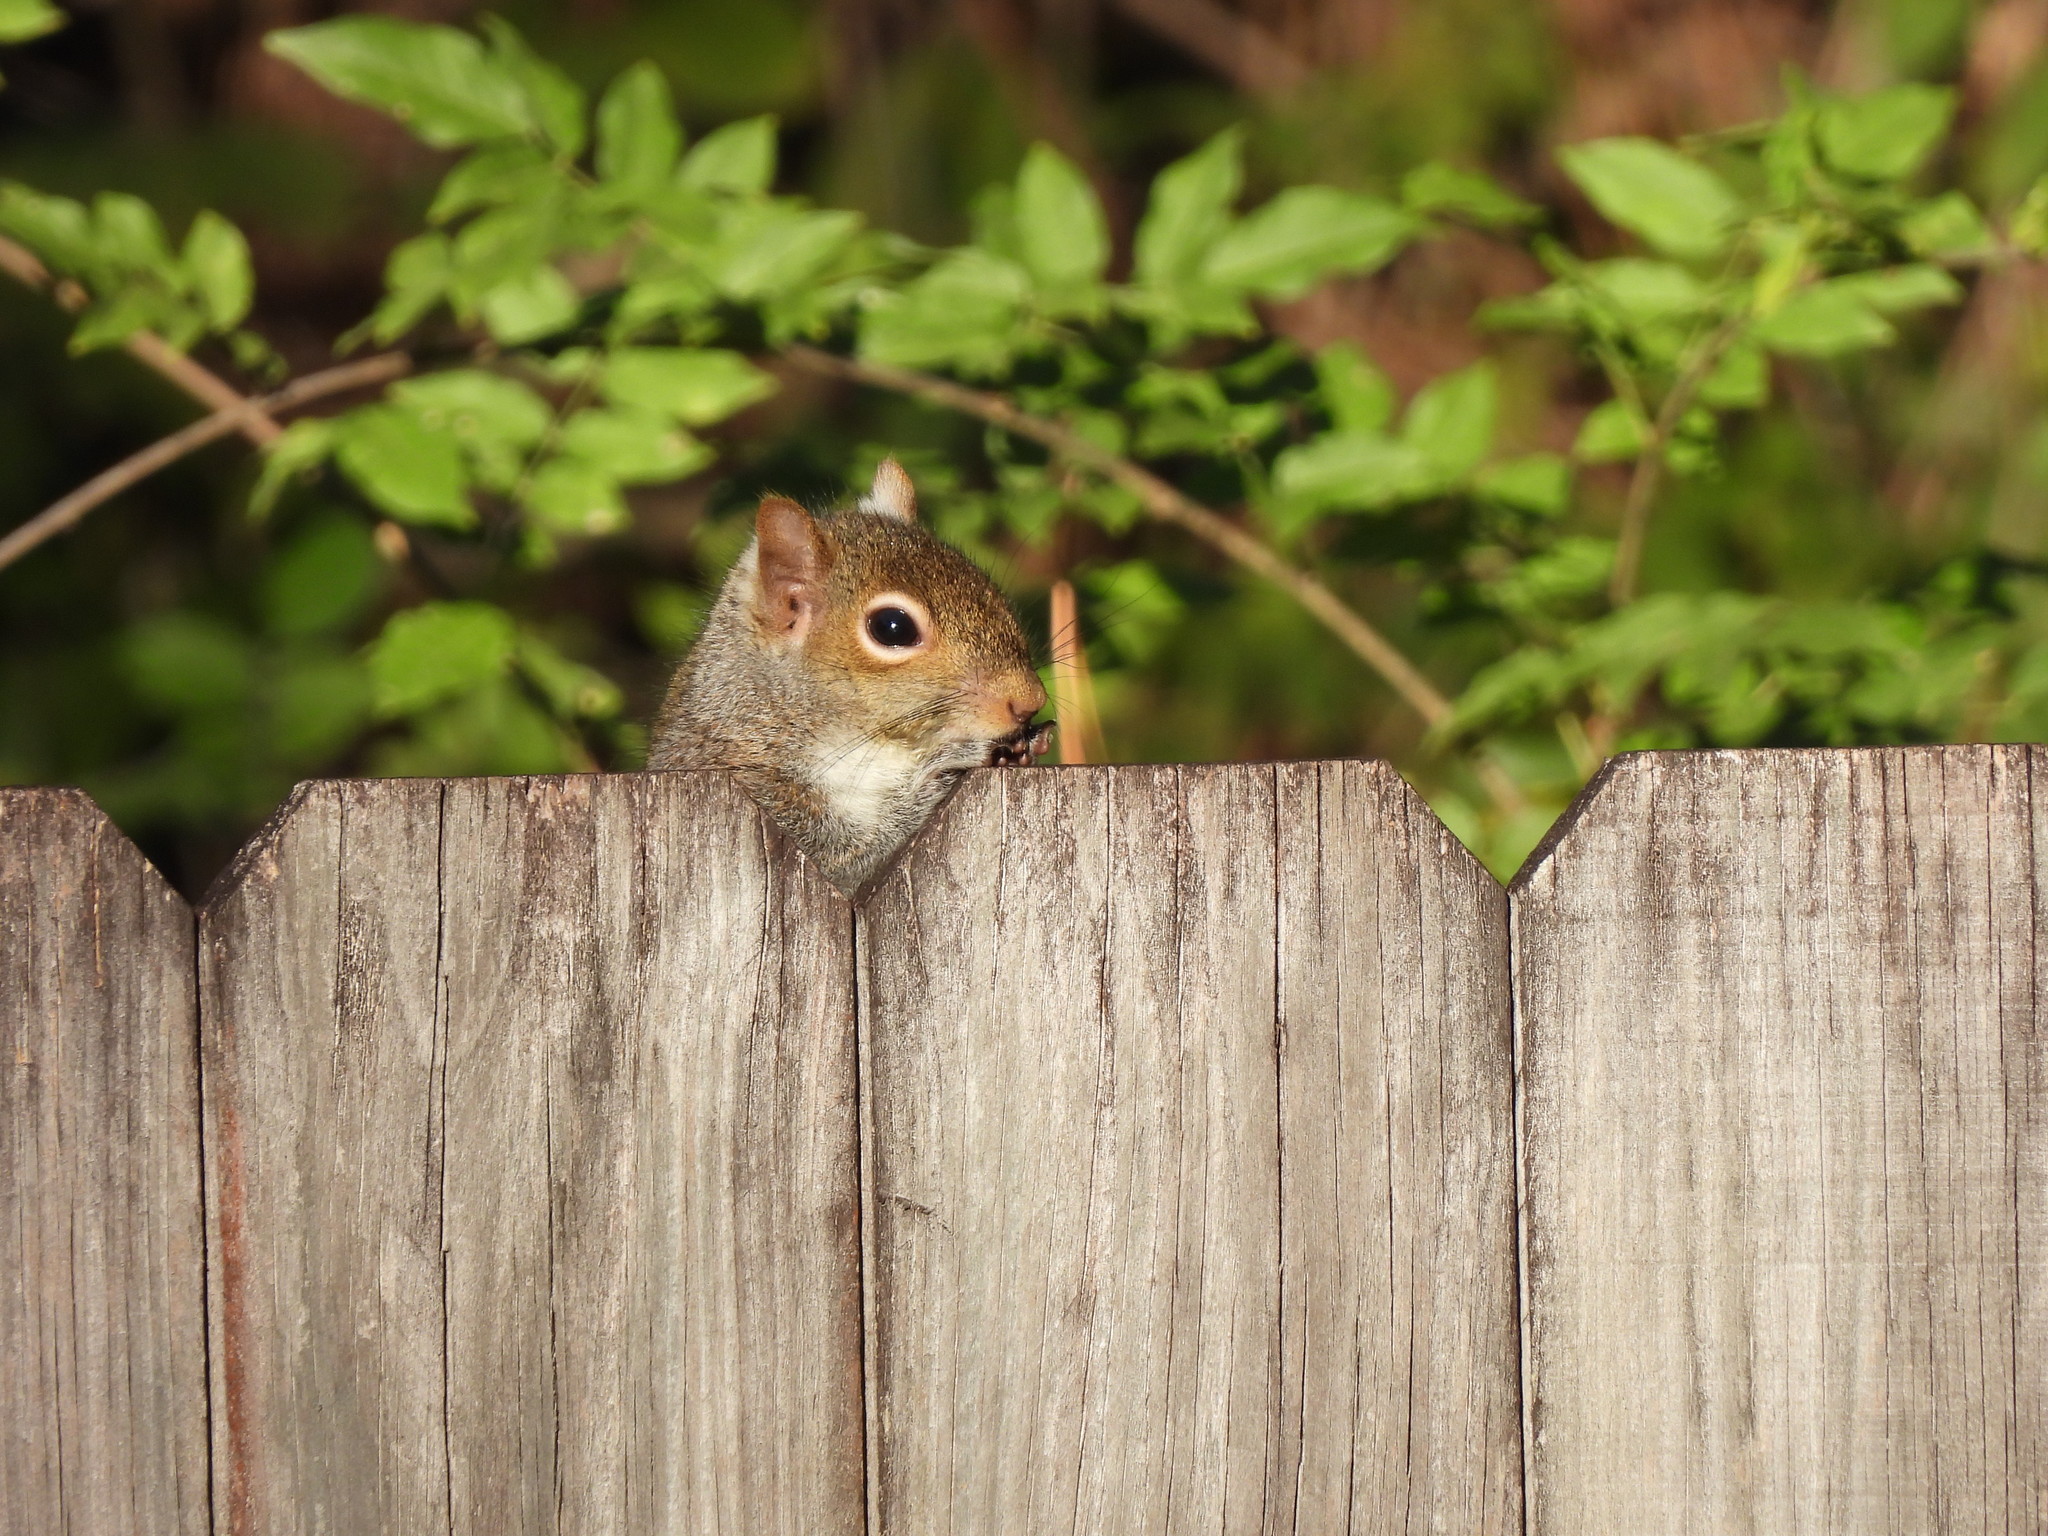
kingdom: Animalia
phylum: Chordata
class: Mammalia
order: Rodentia
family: Sciuridae
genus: Sciurus
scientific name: Sciurus carolinensis
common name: Eastern gray squirrel
